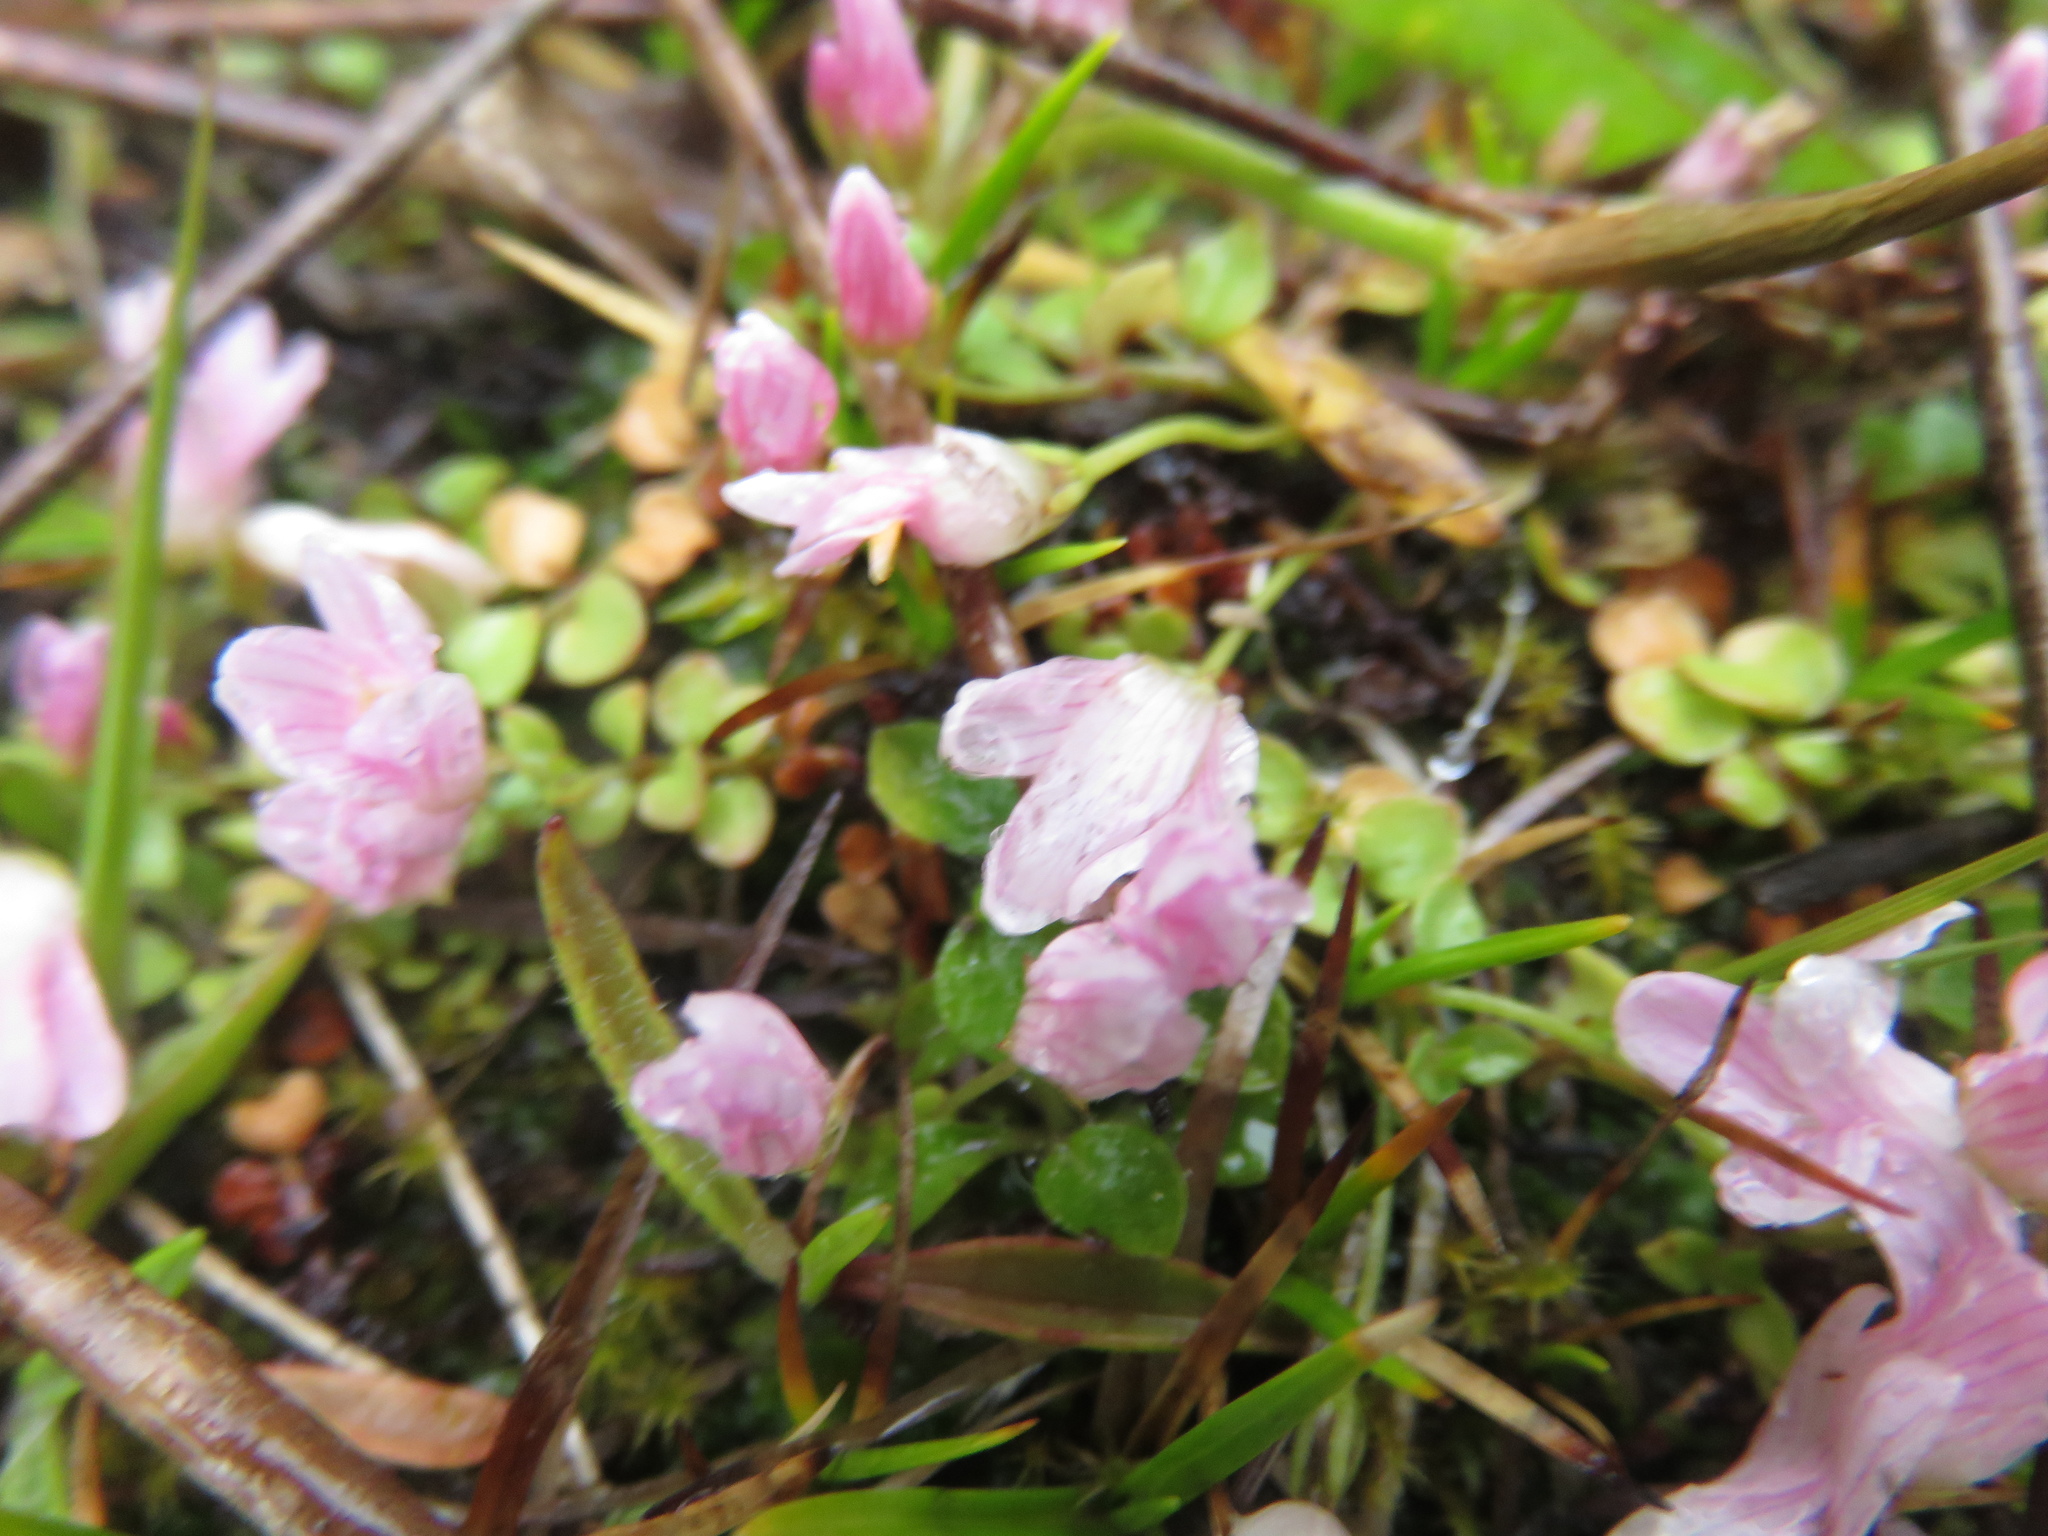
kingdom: Plantae
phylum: Tracheophyta
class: Magnoliopsida
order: Ericales
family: Primulaceae
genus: Lysimachia
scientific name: Lysimachia tenella
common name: European bog pimpernel
